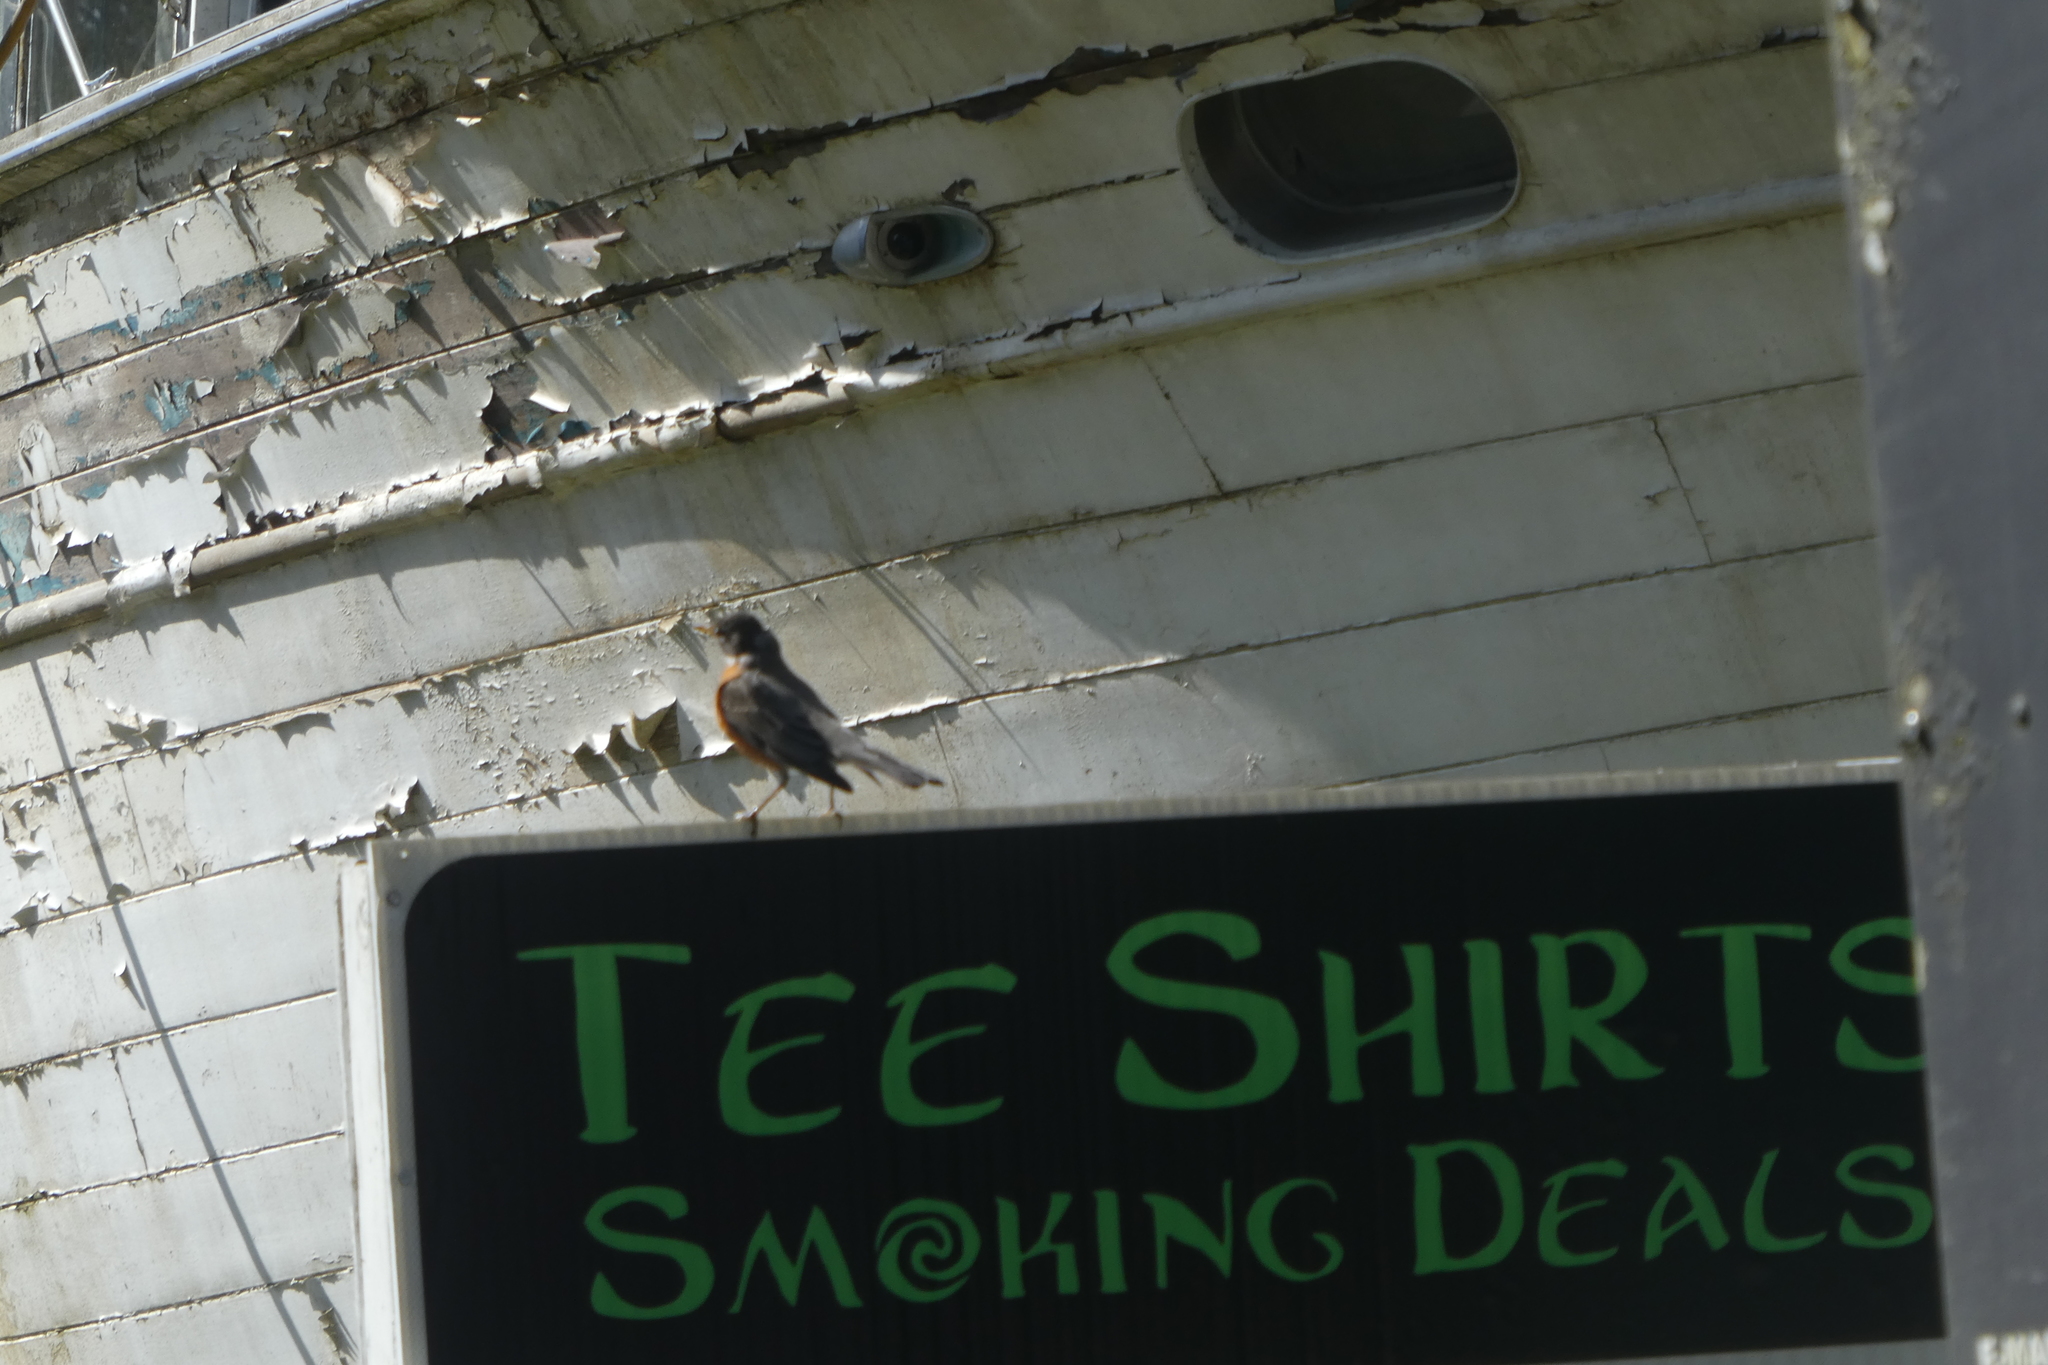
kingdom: Animalia
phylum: Chordata
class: Aves
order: Passeriformes
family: Turdidae
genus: Turdus
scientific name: Turdus migratorius
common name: American robin
